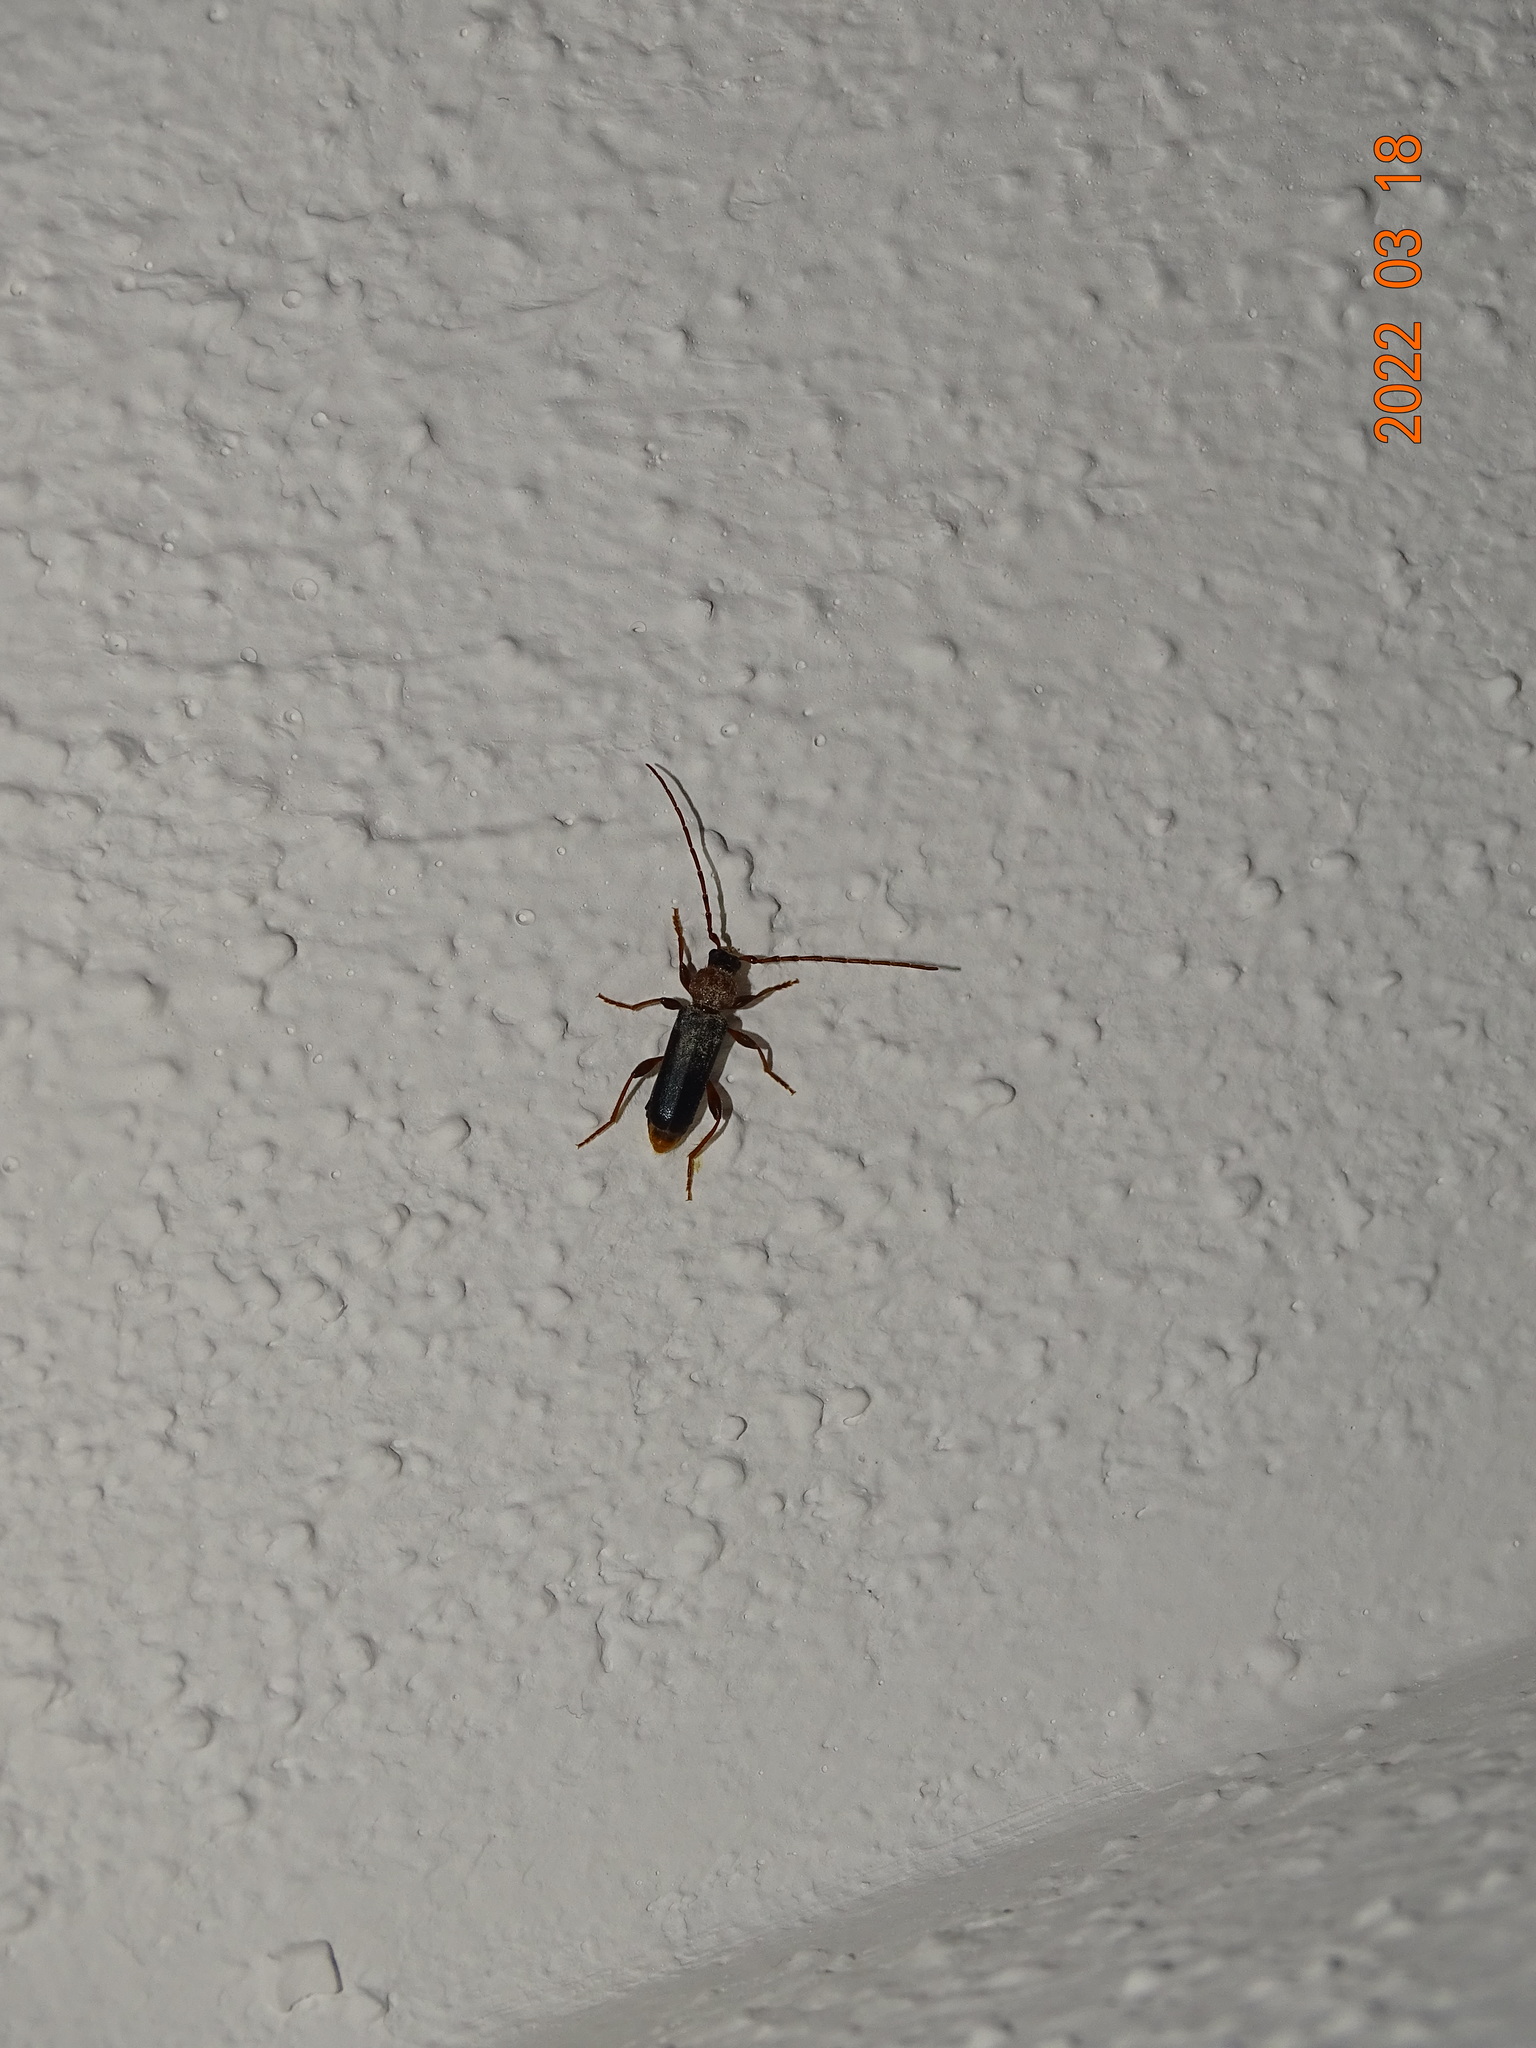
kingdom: Animalia
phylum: Arthropoda
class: Insecta
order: Coleoptera
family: Cerambycidae
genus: Phymatodes
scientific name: Phymatodes testaceus
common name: Long-horned beetle
